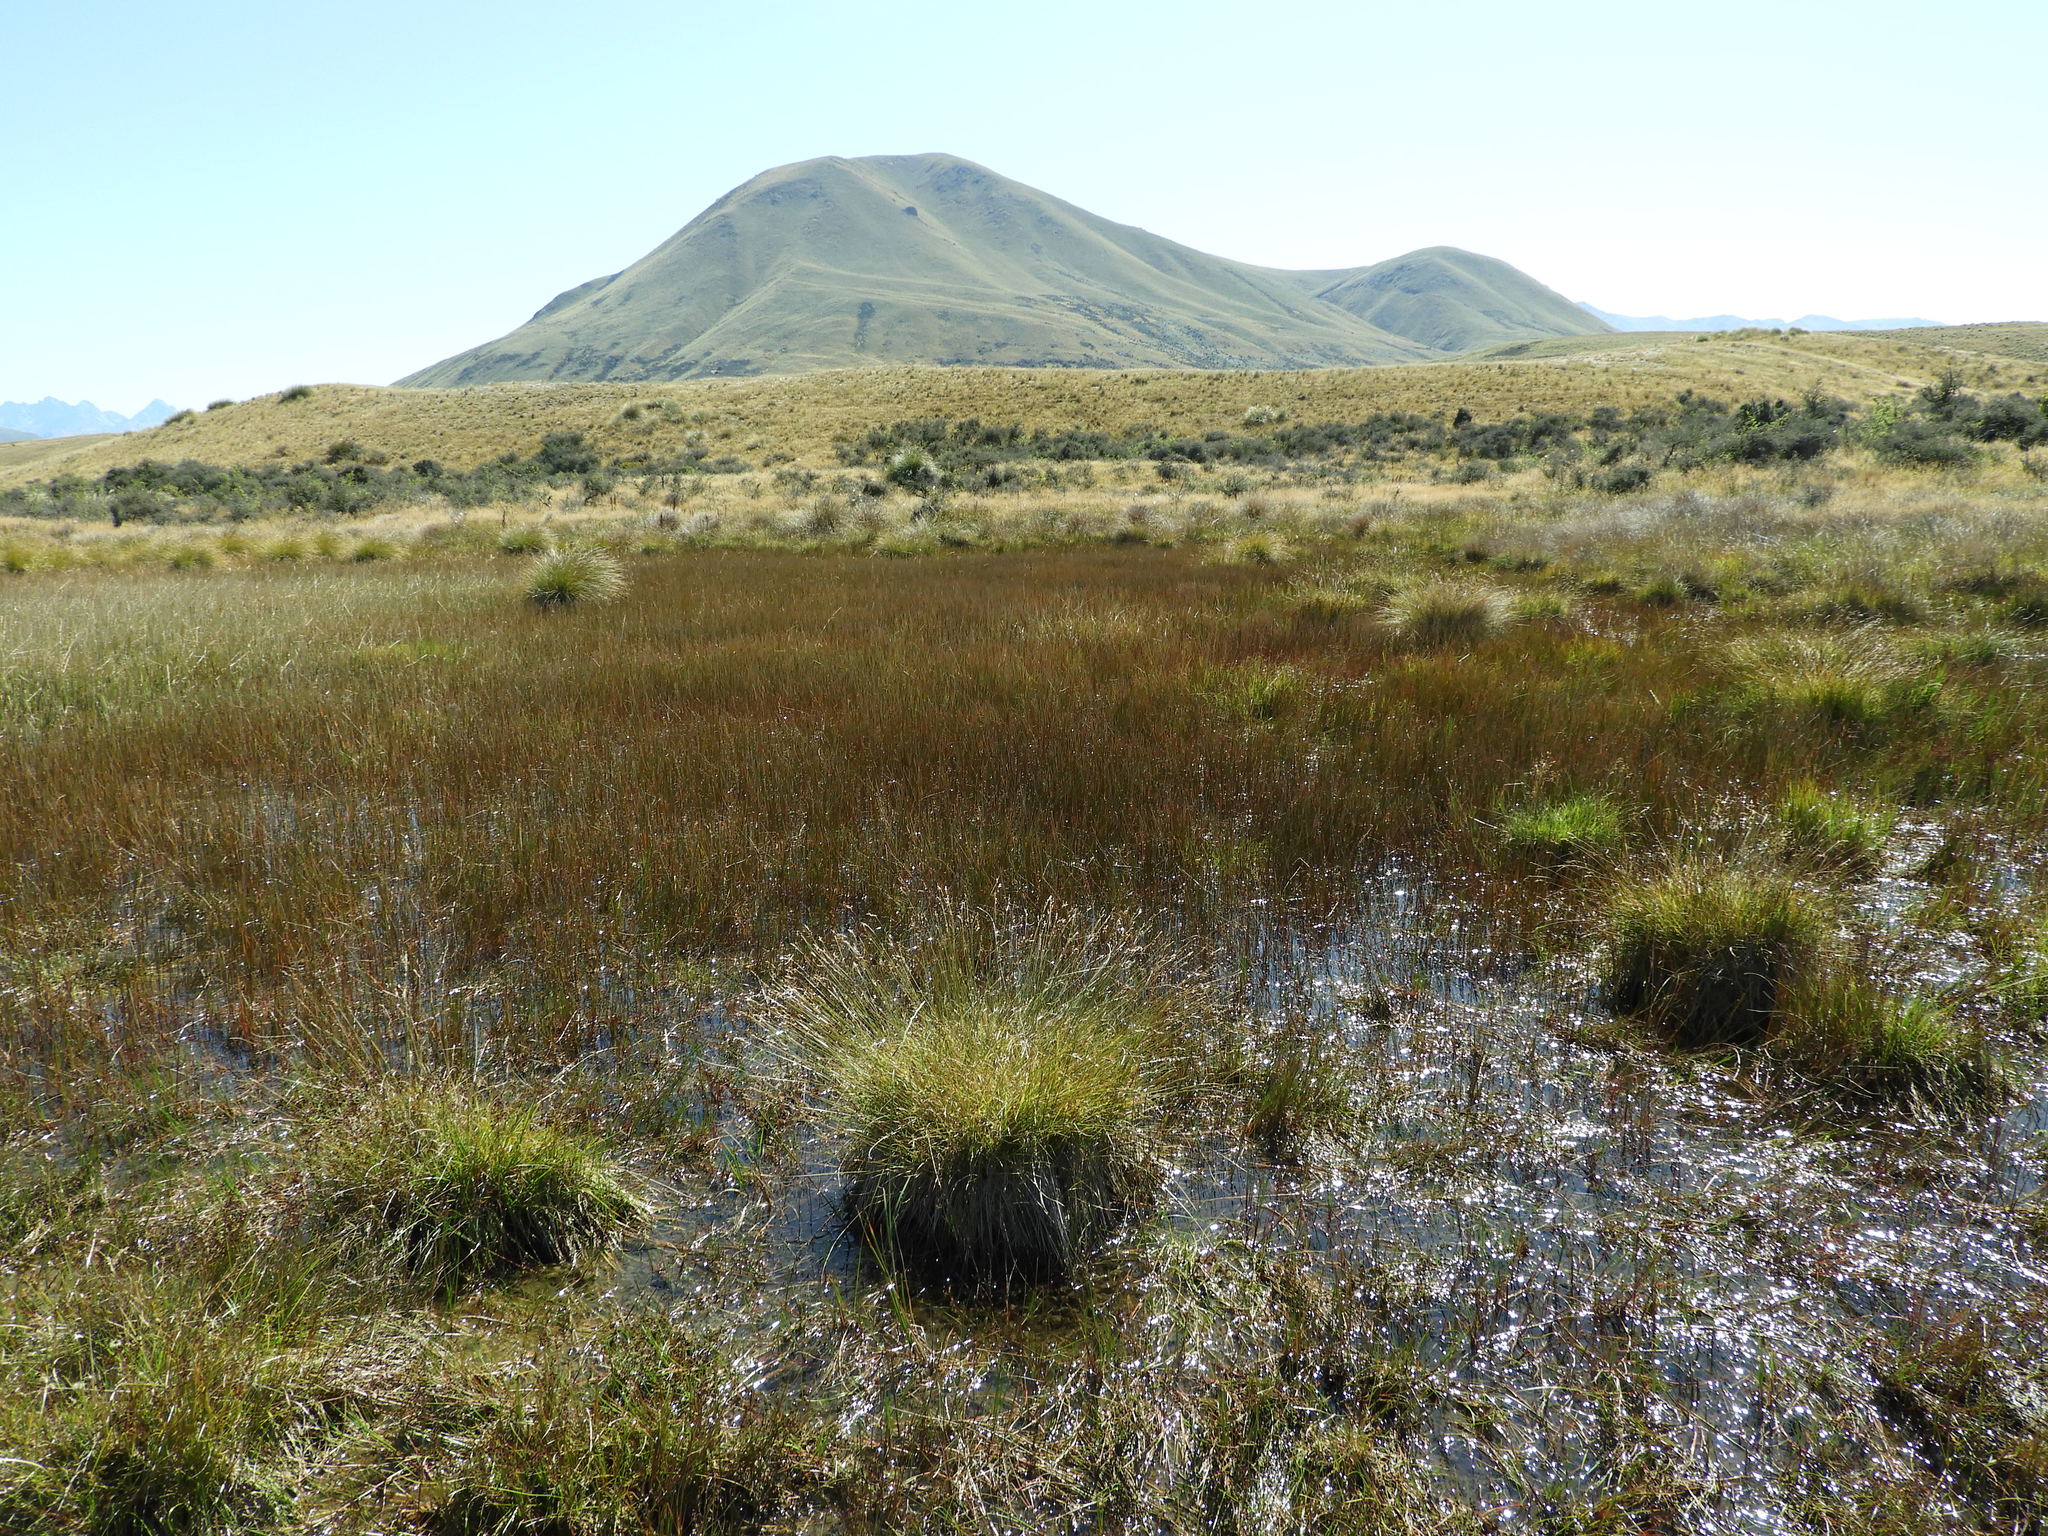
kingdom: Plantae
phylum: Tracheophyta
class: Liliopsida
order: Poales
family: Cyperaceae
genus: Carex
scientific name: Carex leporina
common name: Oval sedge
